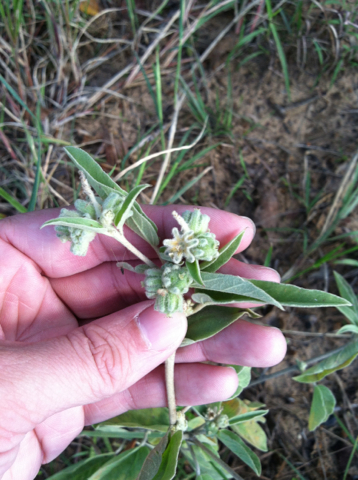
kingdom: Plantae
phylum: Tracheophyta
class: Magnoliopsida
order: Malpighiales
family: Euphorbiaceae
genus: Croton
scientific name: Croton lindheimeri
